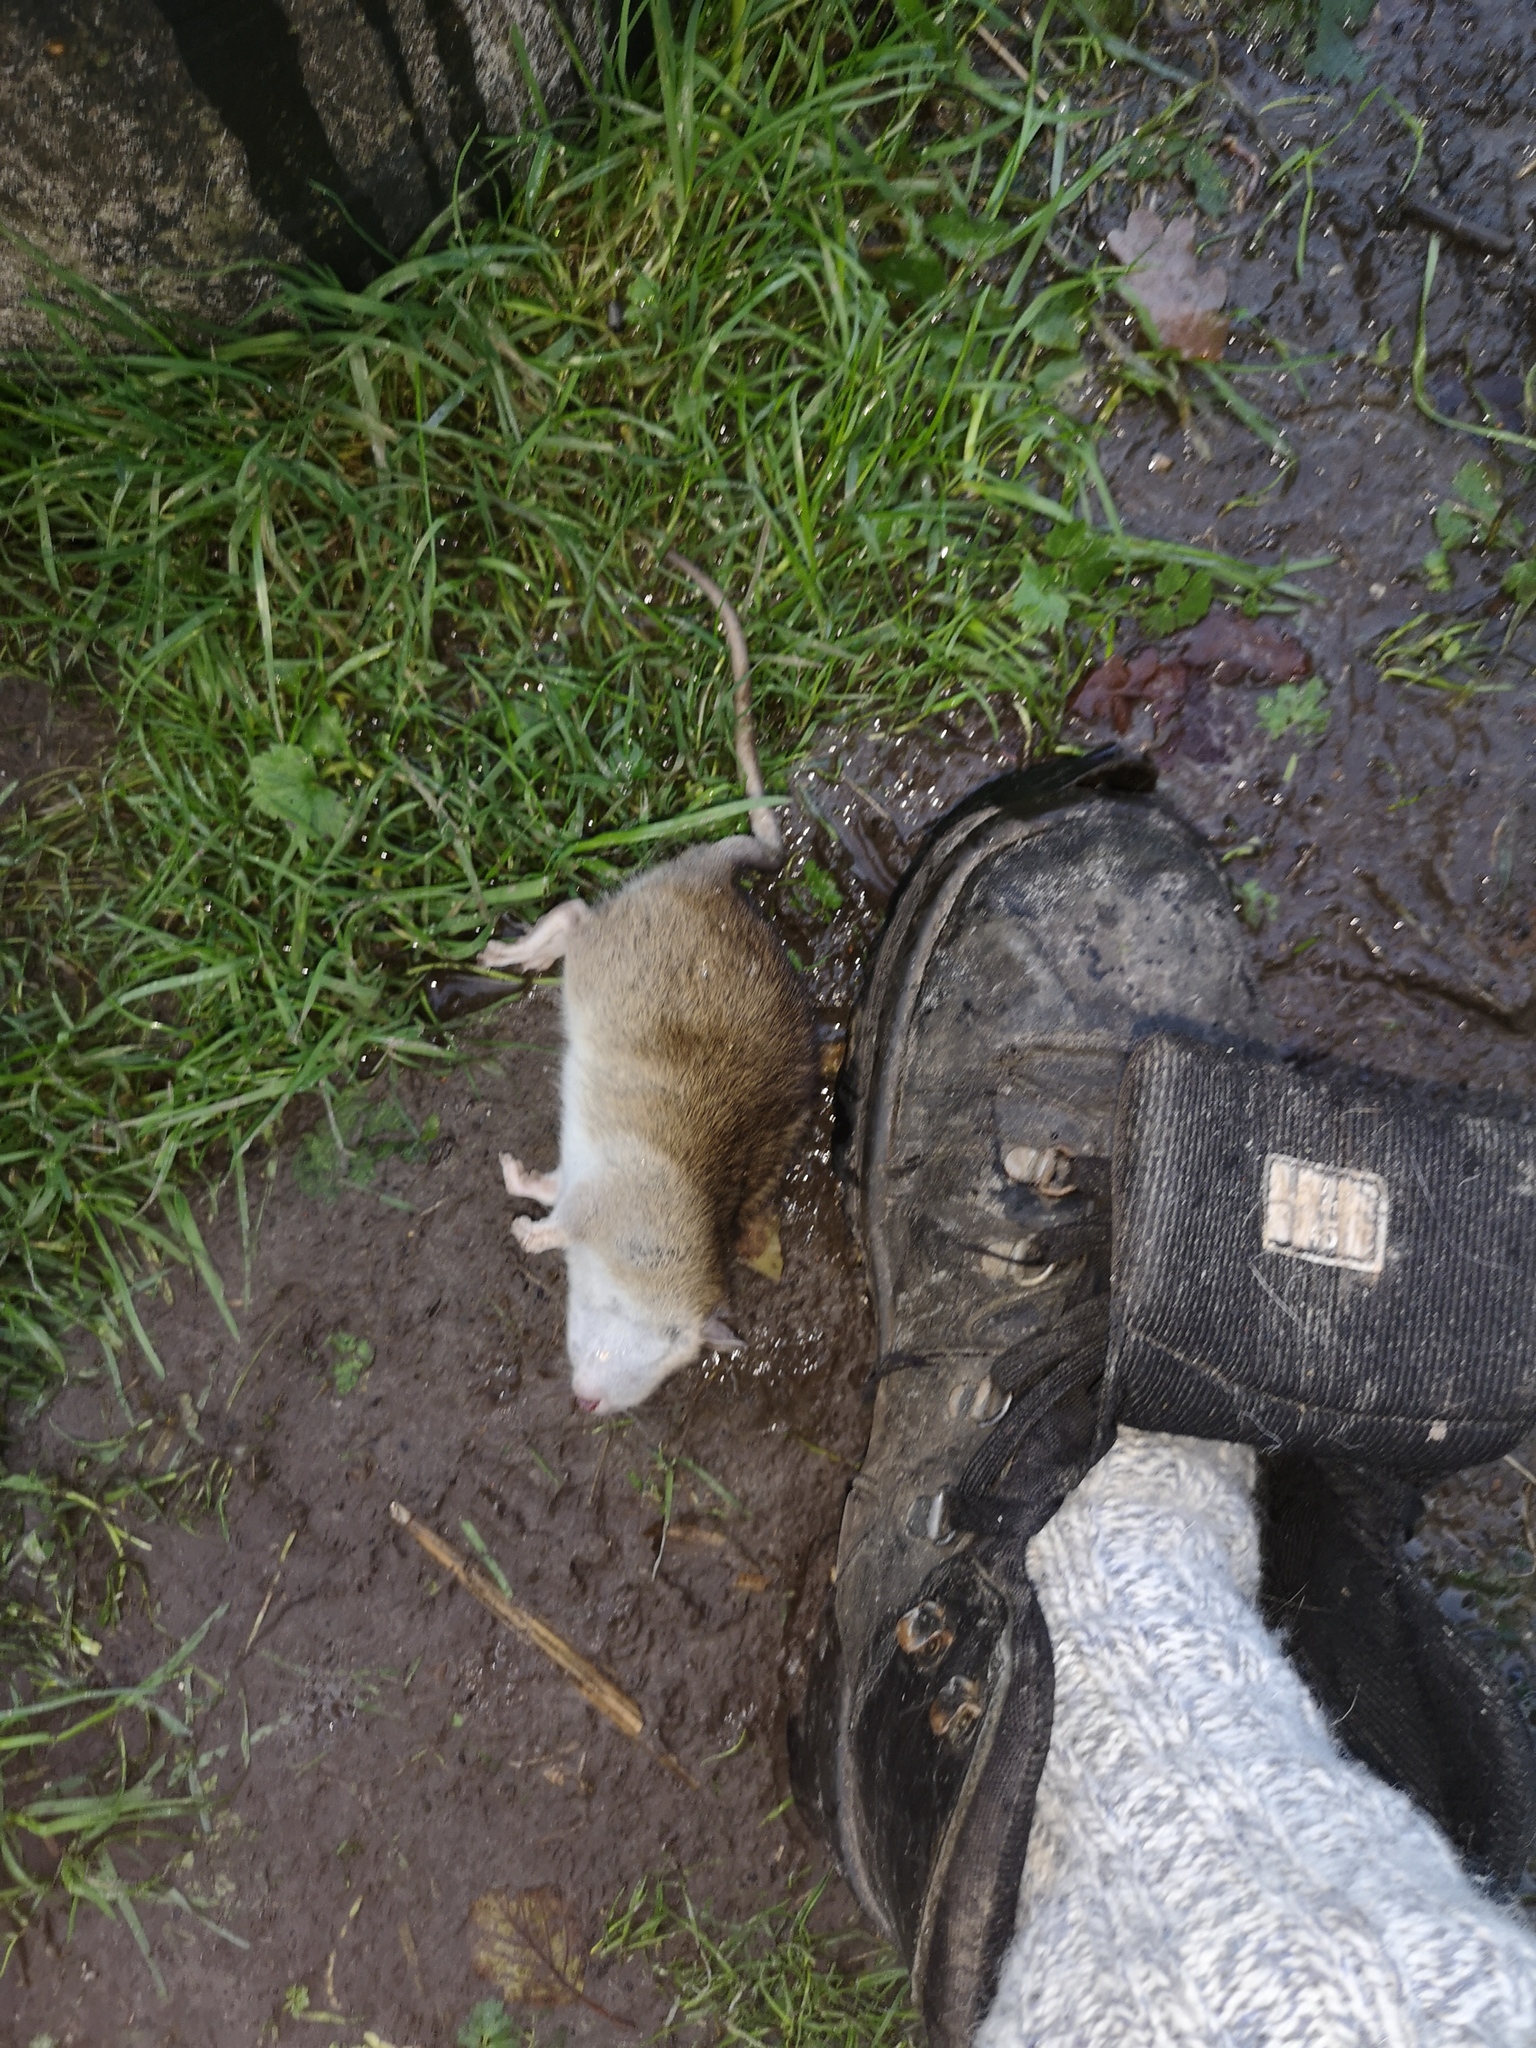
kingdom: Animalia
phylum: Chordata
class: Mammalia
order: Rodentia
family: Muridae
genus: Rattus
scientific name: Rattus norvegicus
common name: Brown rat
